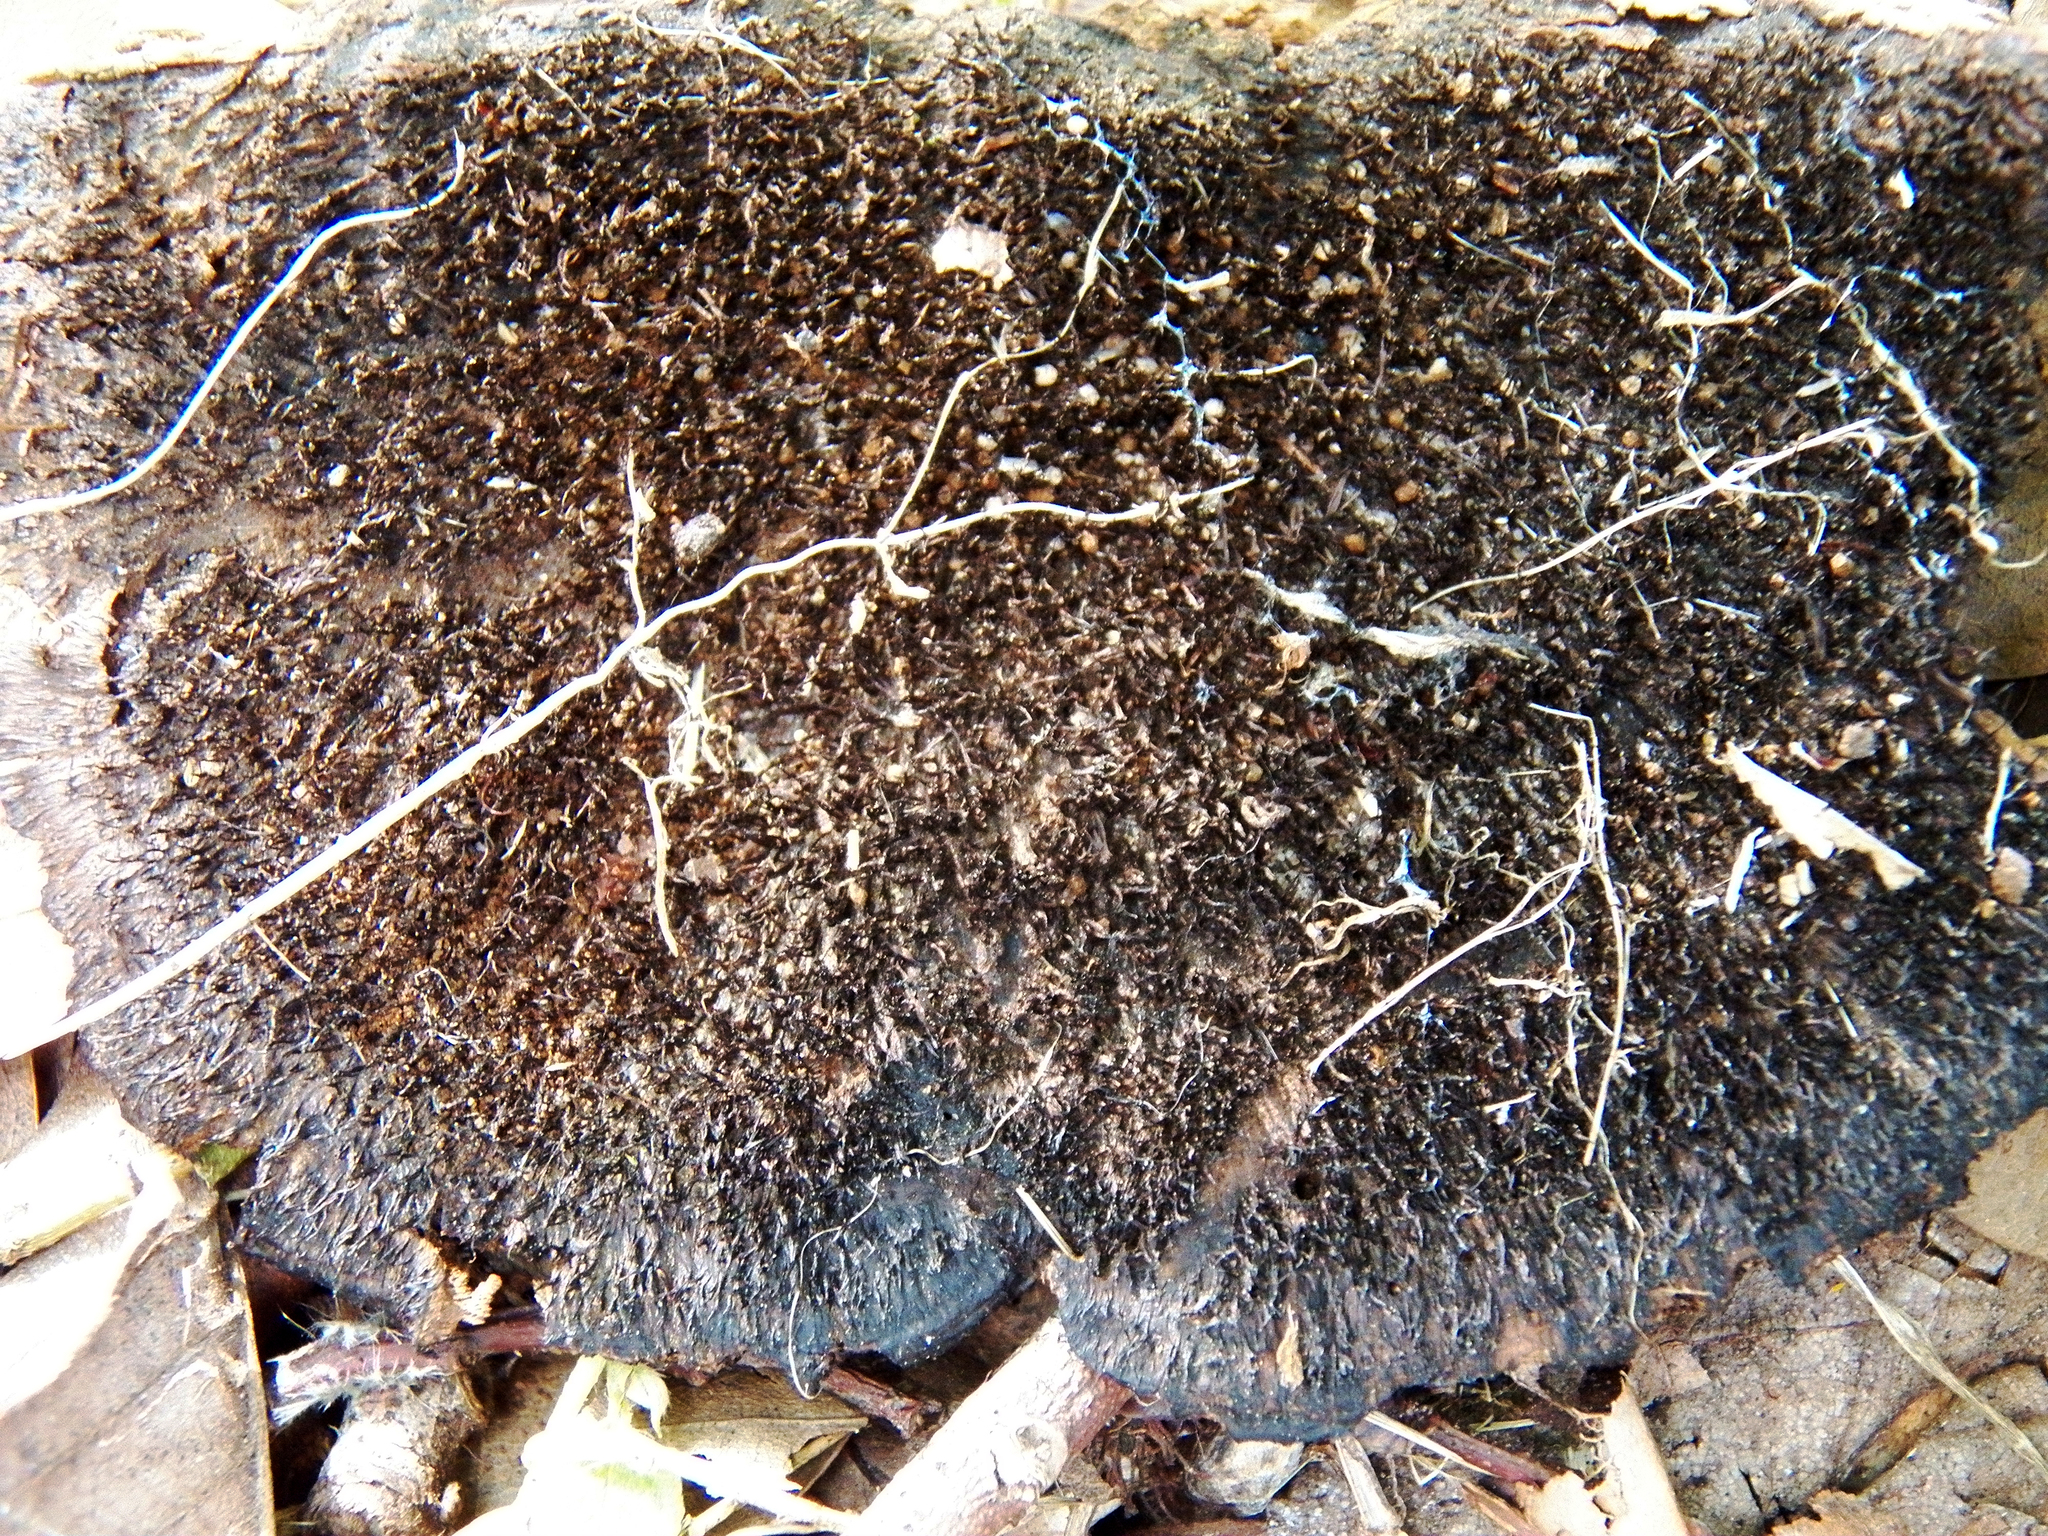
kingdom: Fungi
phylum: Basidiomycota
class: Agaricomycetes
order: Polyporales
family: Cerrenaceae
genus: Cerrena
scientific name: Cerrena hydnoides
